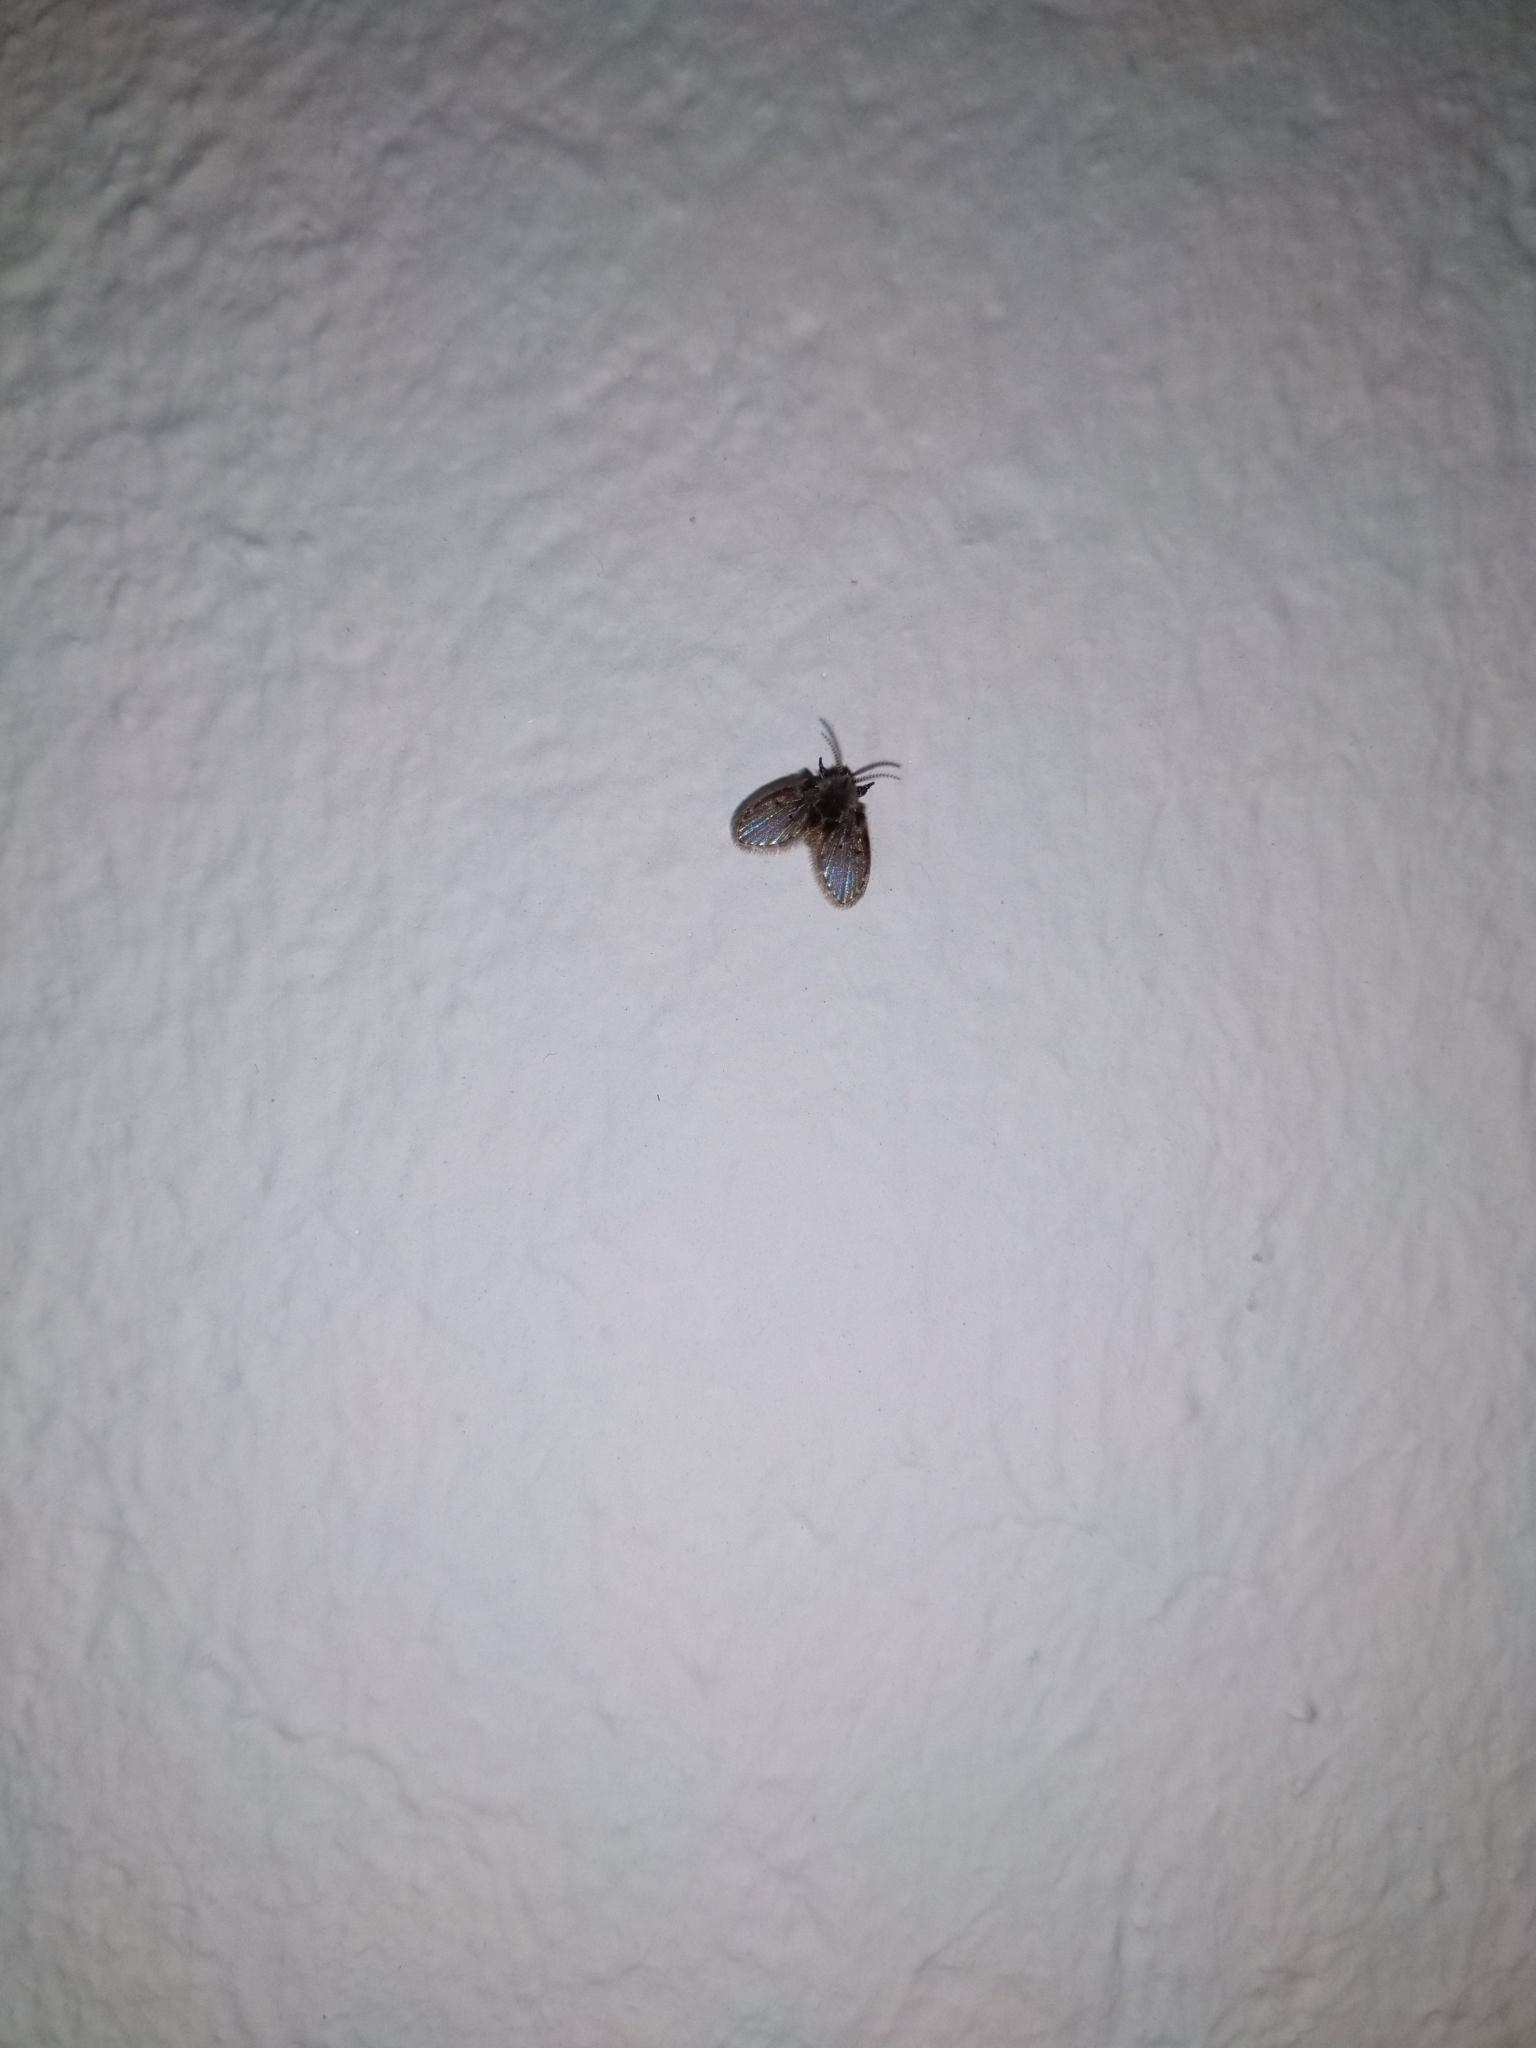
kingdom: Animalia
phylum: Arthropoda
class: Insecta
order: Diptera
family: Psychodidae
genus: Clogmia
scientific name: Clogmia albipunctatus
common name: White-spotted moth fly
